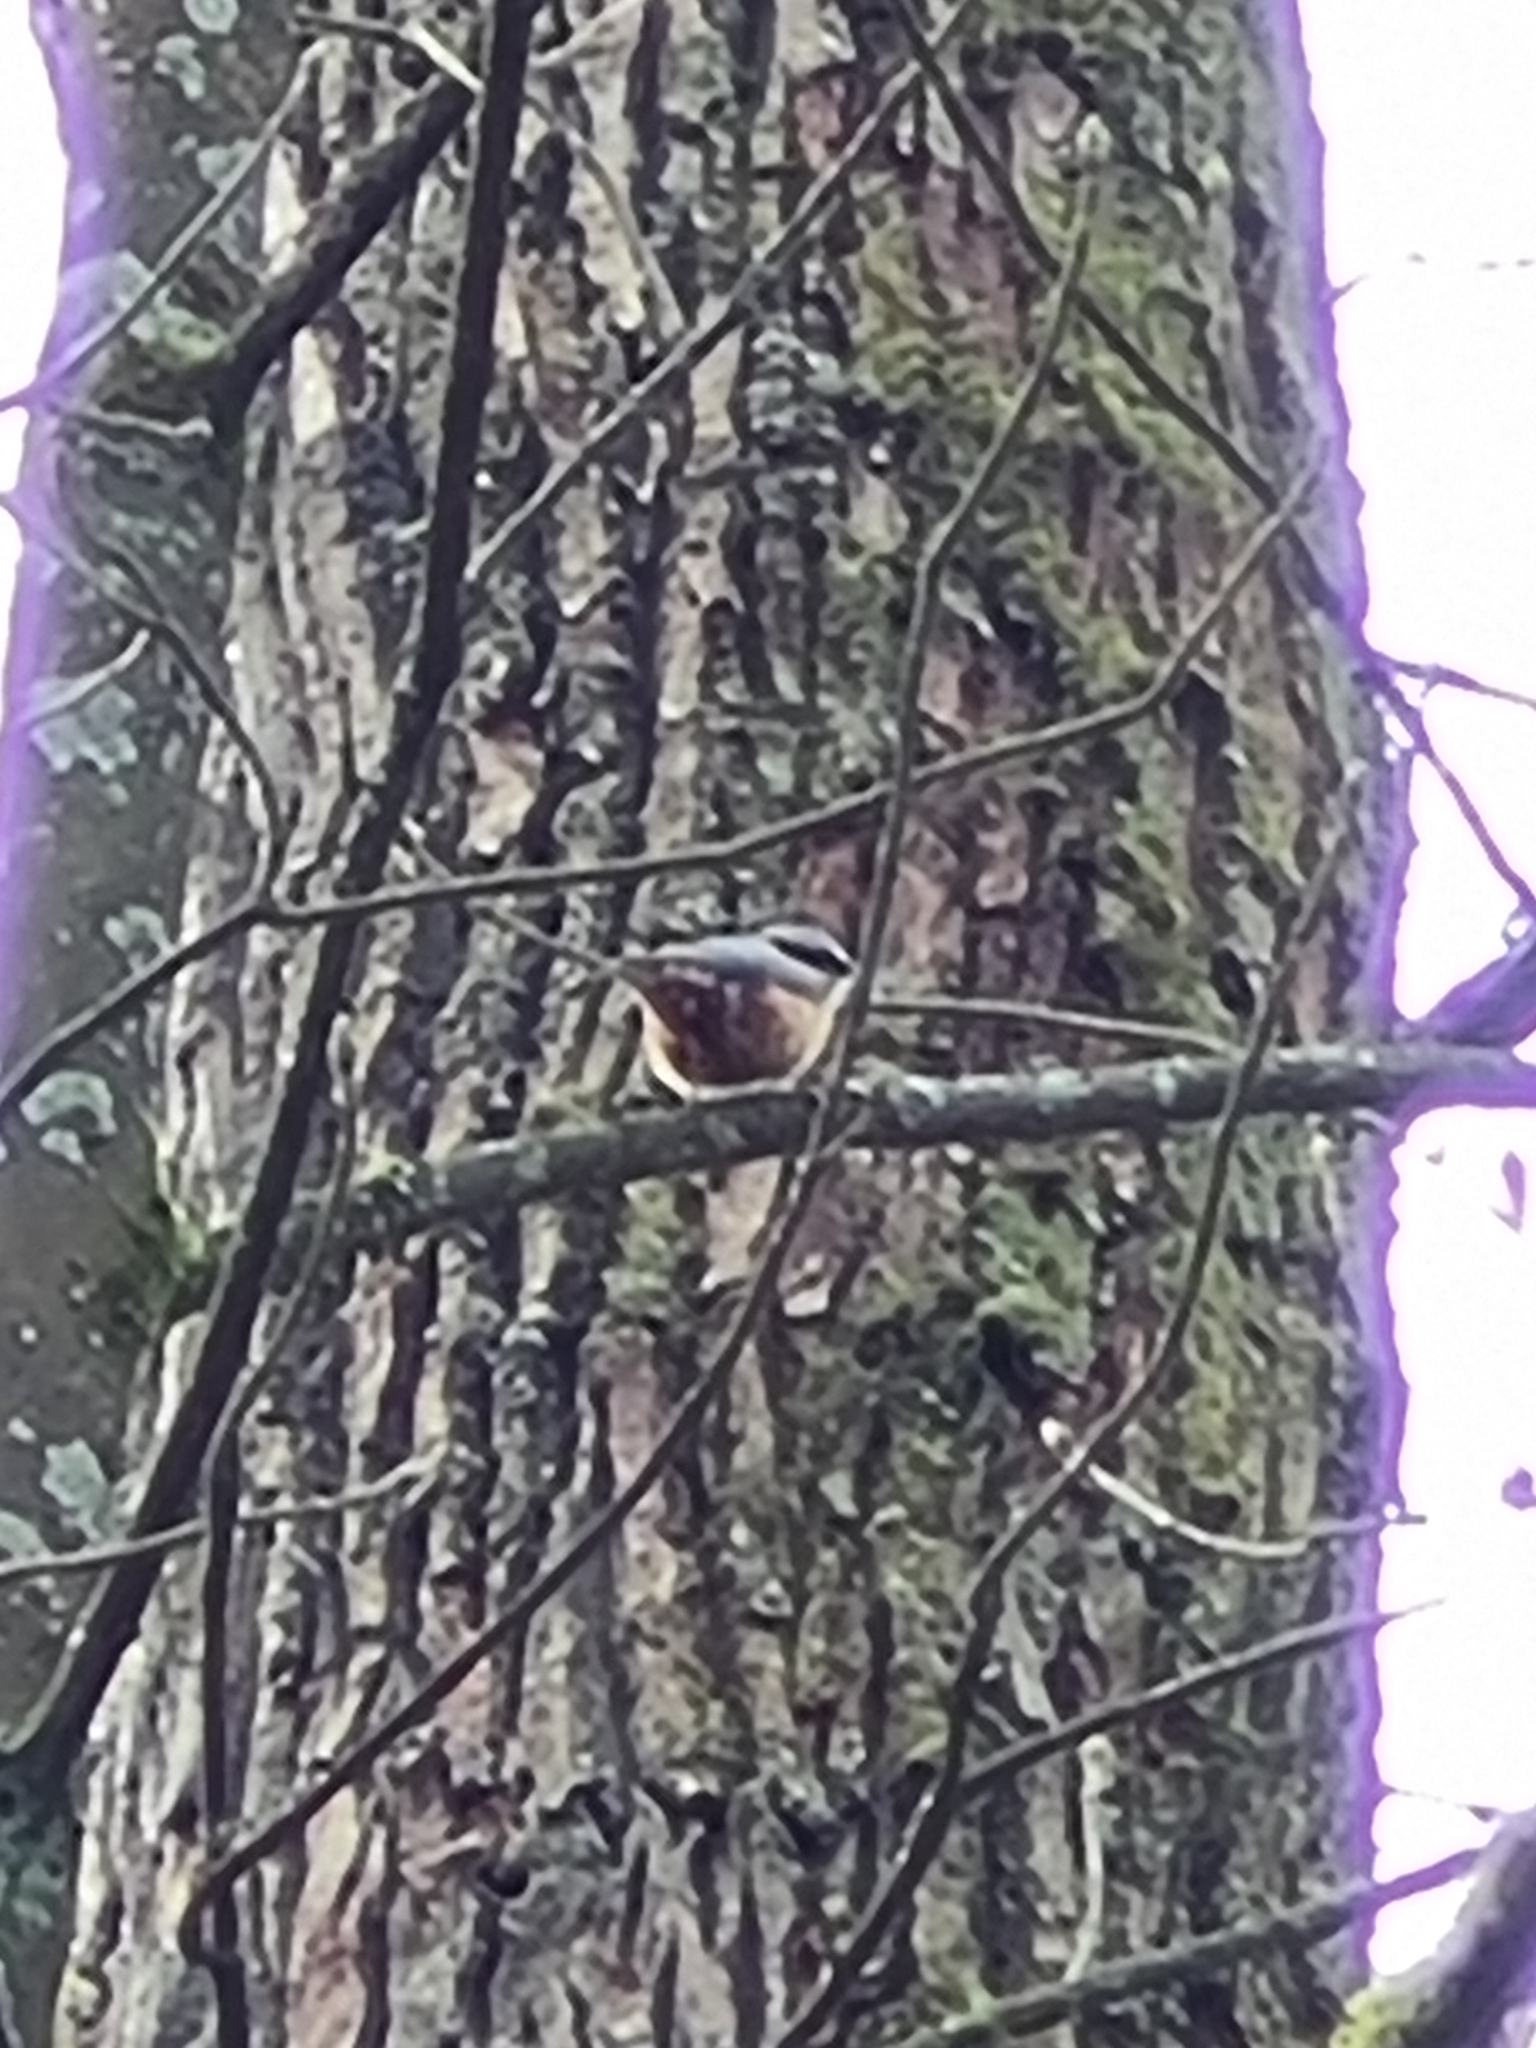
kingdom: Animalia
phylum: Chordata
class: Aves
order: Passeriformes
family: Sittidae
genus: Sitta
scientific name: Sitta europaea
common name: Eurasian nuthatch
